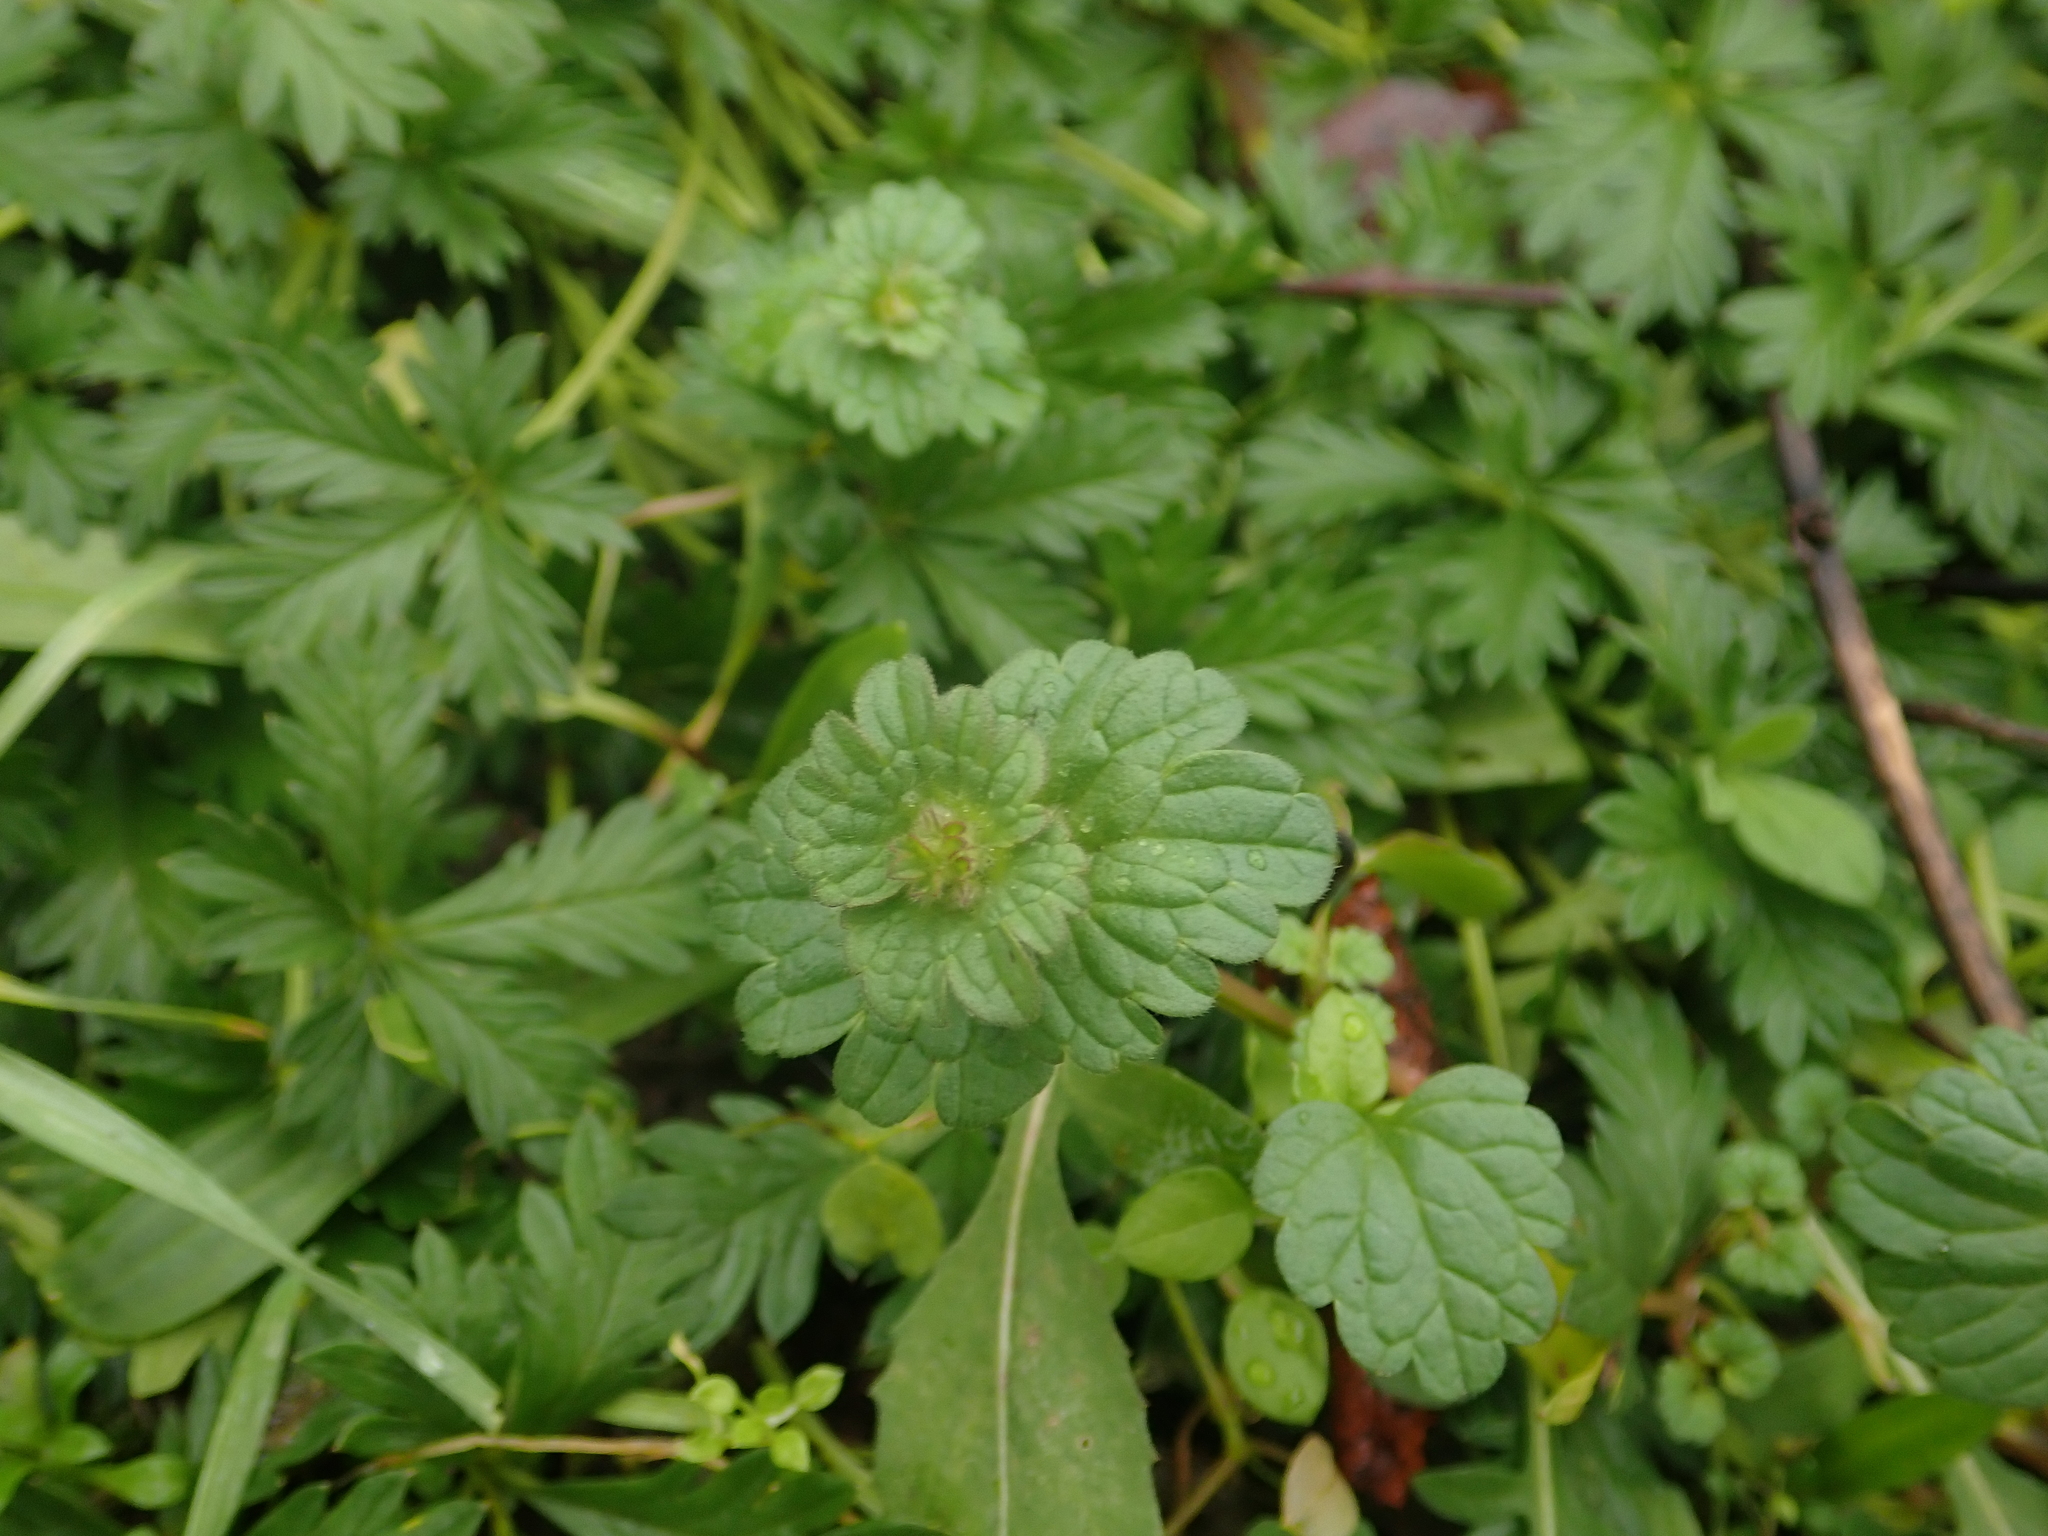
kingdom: Plantae
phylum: Tracheophyta
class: Magnoliopsida
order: Lamiales
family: Lamiaceae
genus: Lamium
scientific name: Lamium amplexicaule
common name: Henbit dead-nettle
